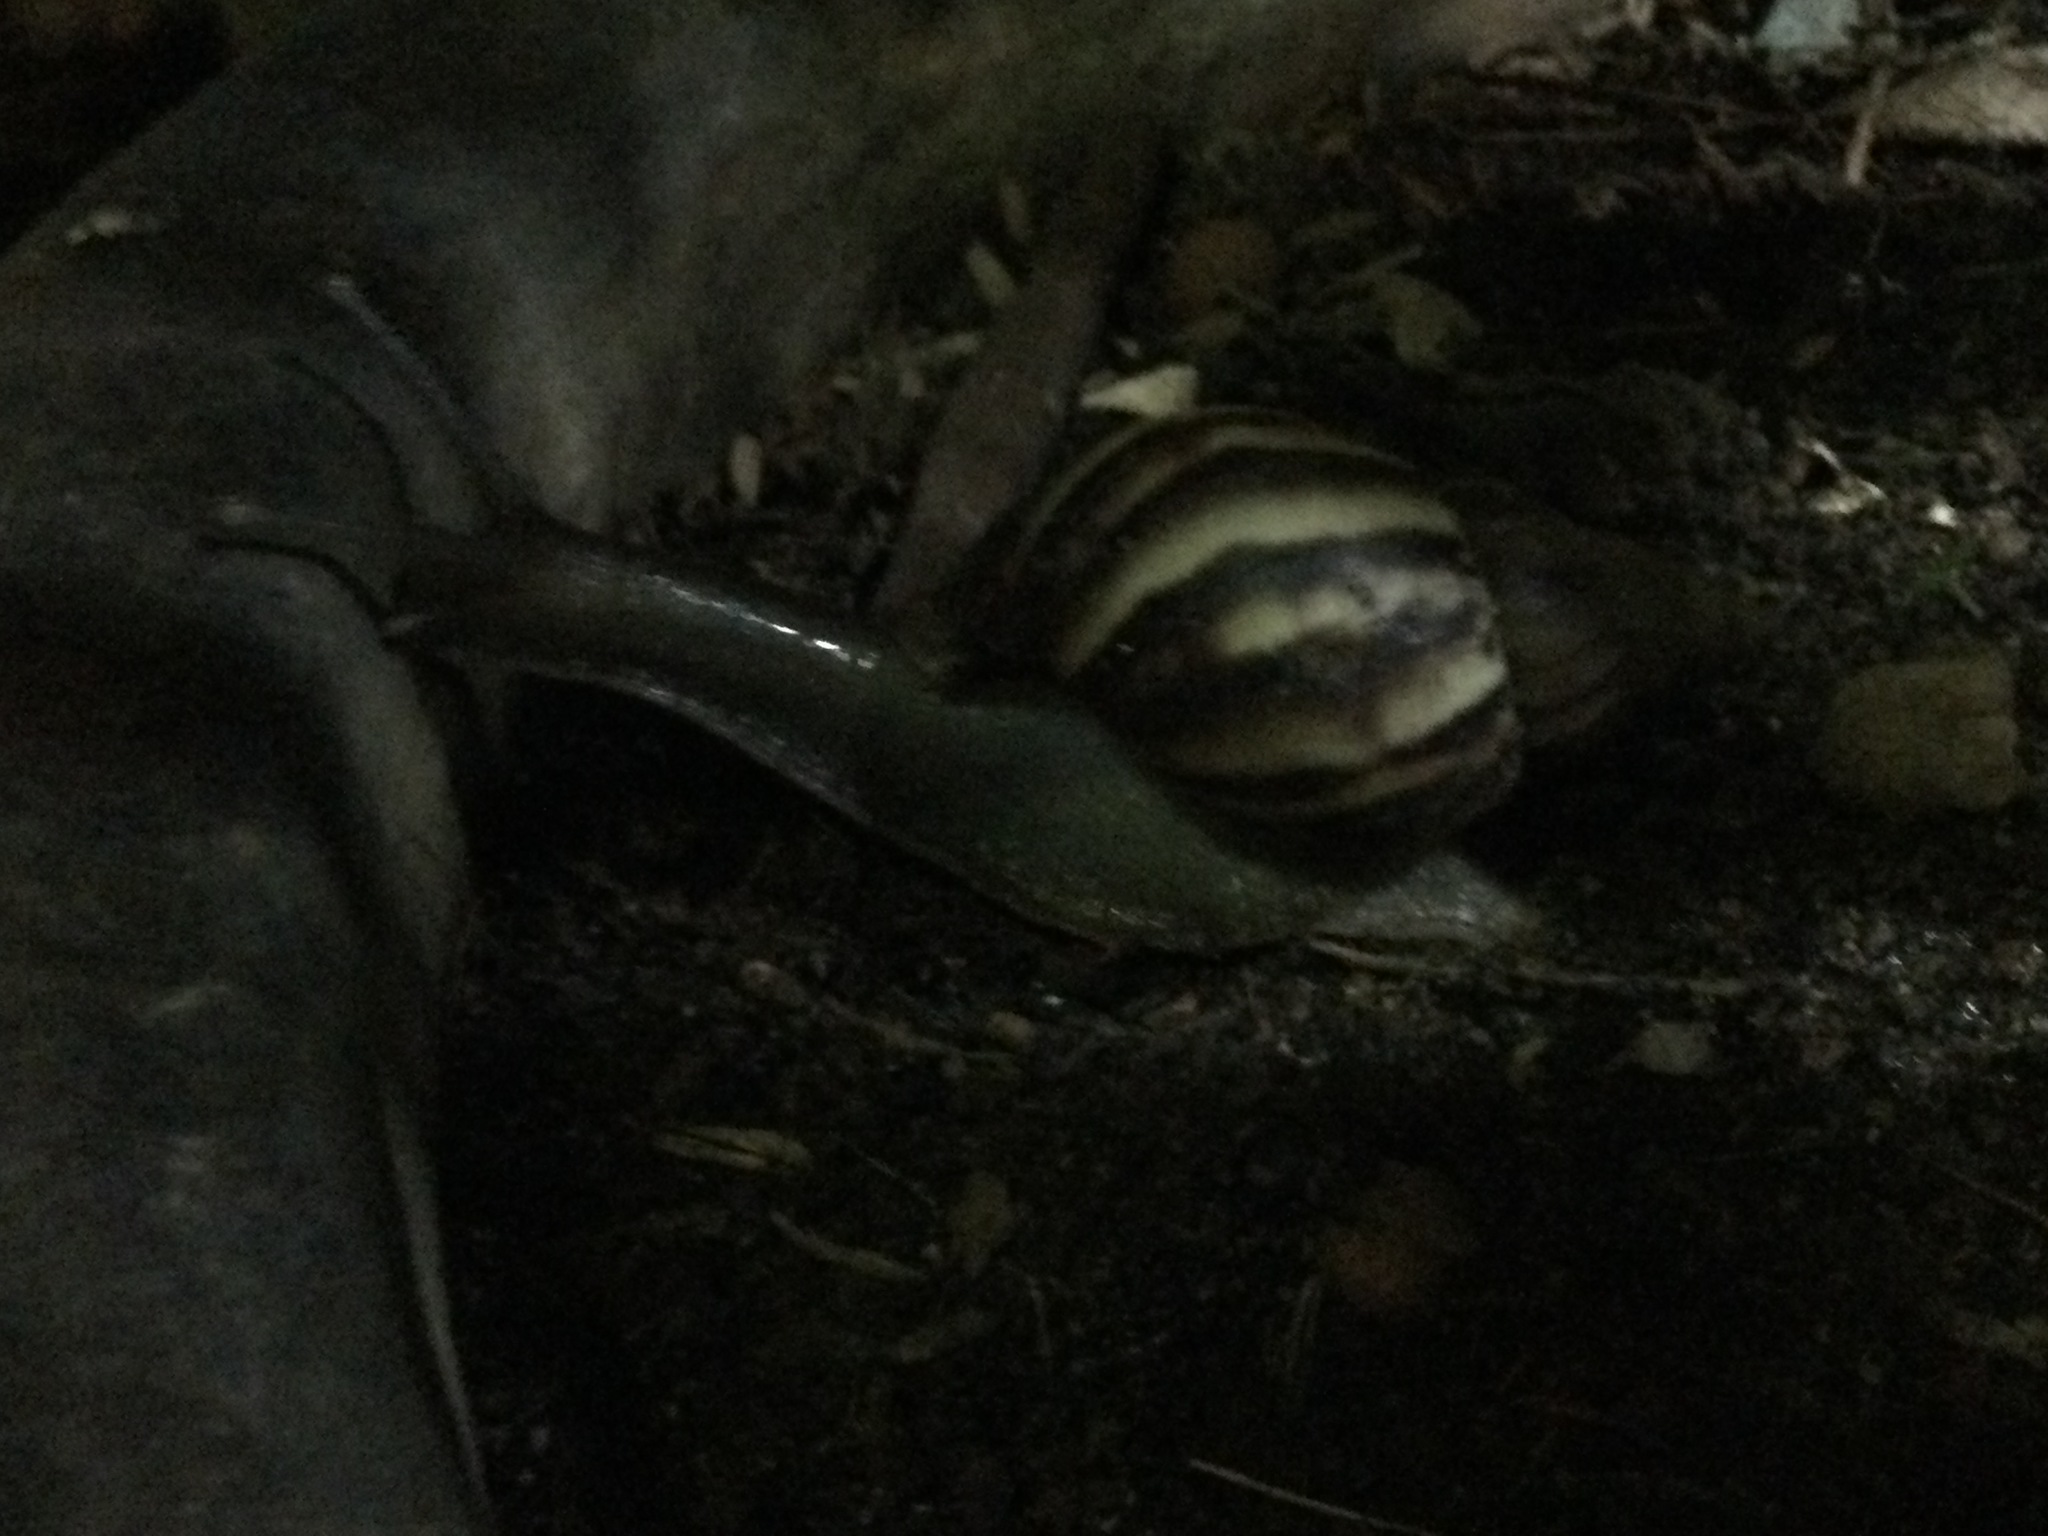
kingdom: Animalia
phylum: Mollusca
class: Gastropoda
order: Stylommatophora
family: Achatinidae
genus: Lissachatina
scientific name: Lissachatina fulica
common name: Giant african snail
